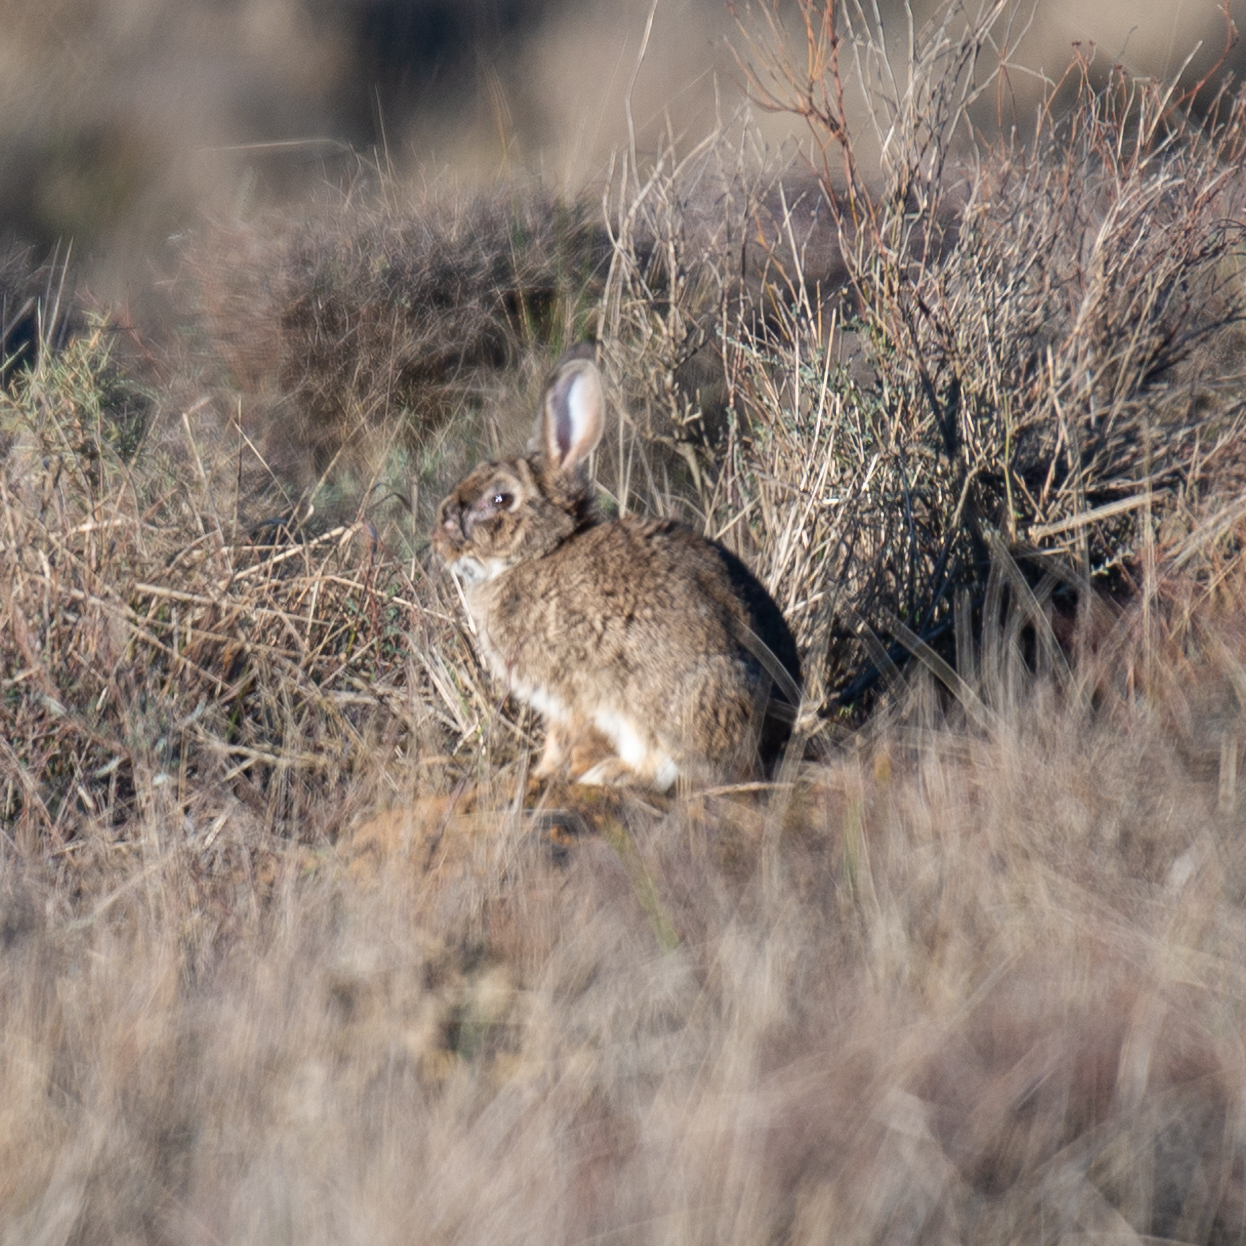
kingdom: Animalia
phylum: Chordata
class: Mammalia
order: Lagomorpha
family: Leporidae
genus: Oryctolagus
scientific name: Oryctolagus cuniculus
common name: European rabbit
